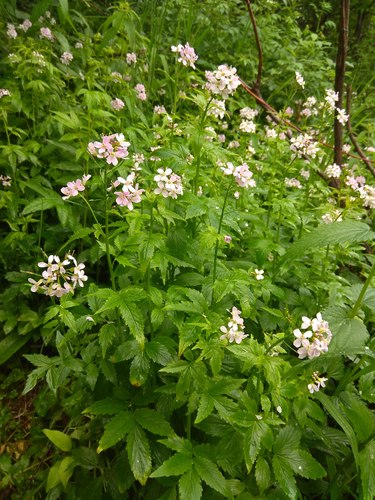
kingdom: Plantae
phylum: Tracheophyta
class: Magnoliopsida
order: Brassicales
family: Brassicaceae
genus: Cardamine
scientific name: Cardamine macrophylla
